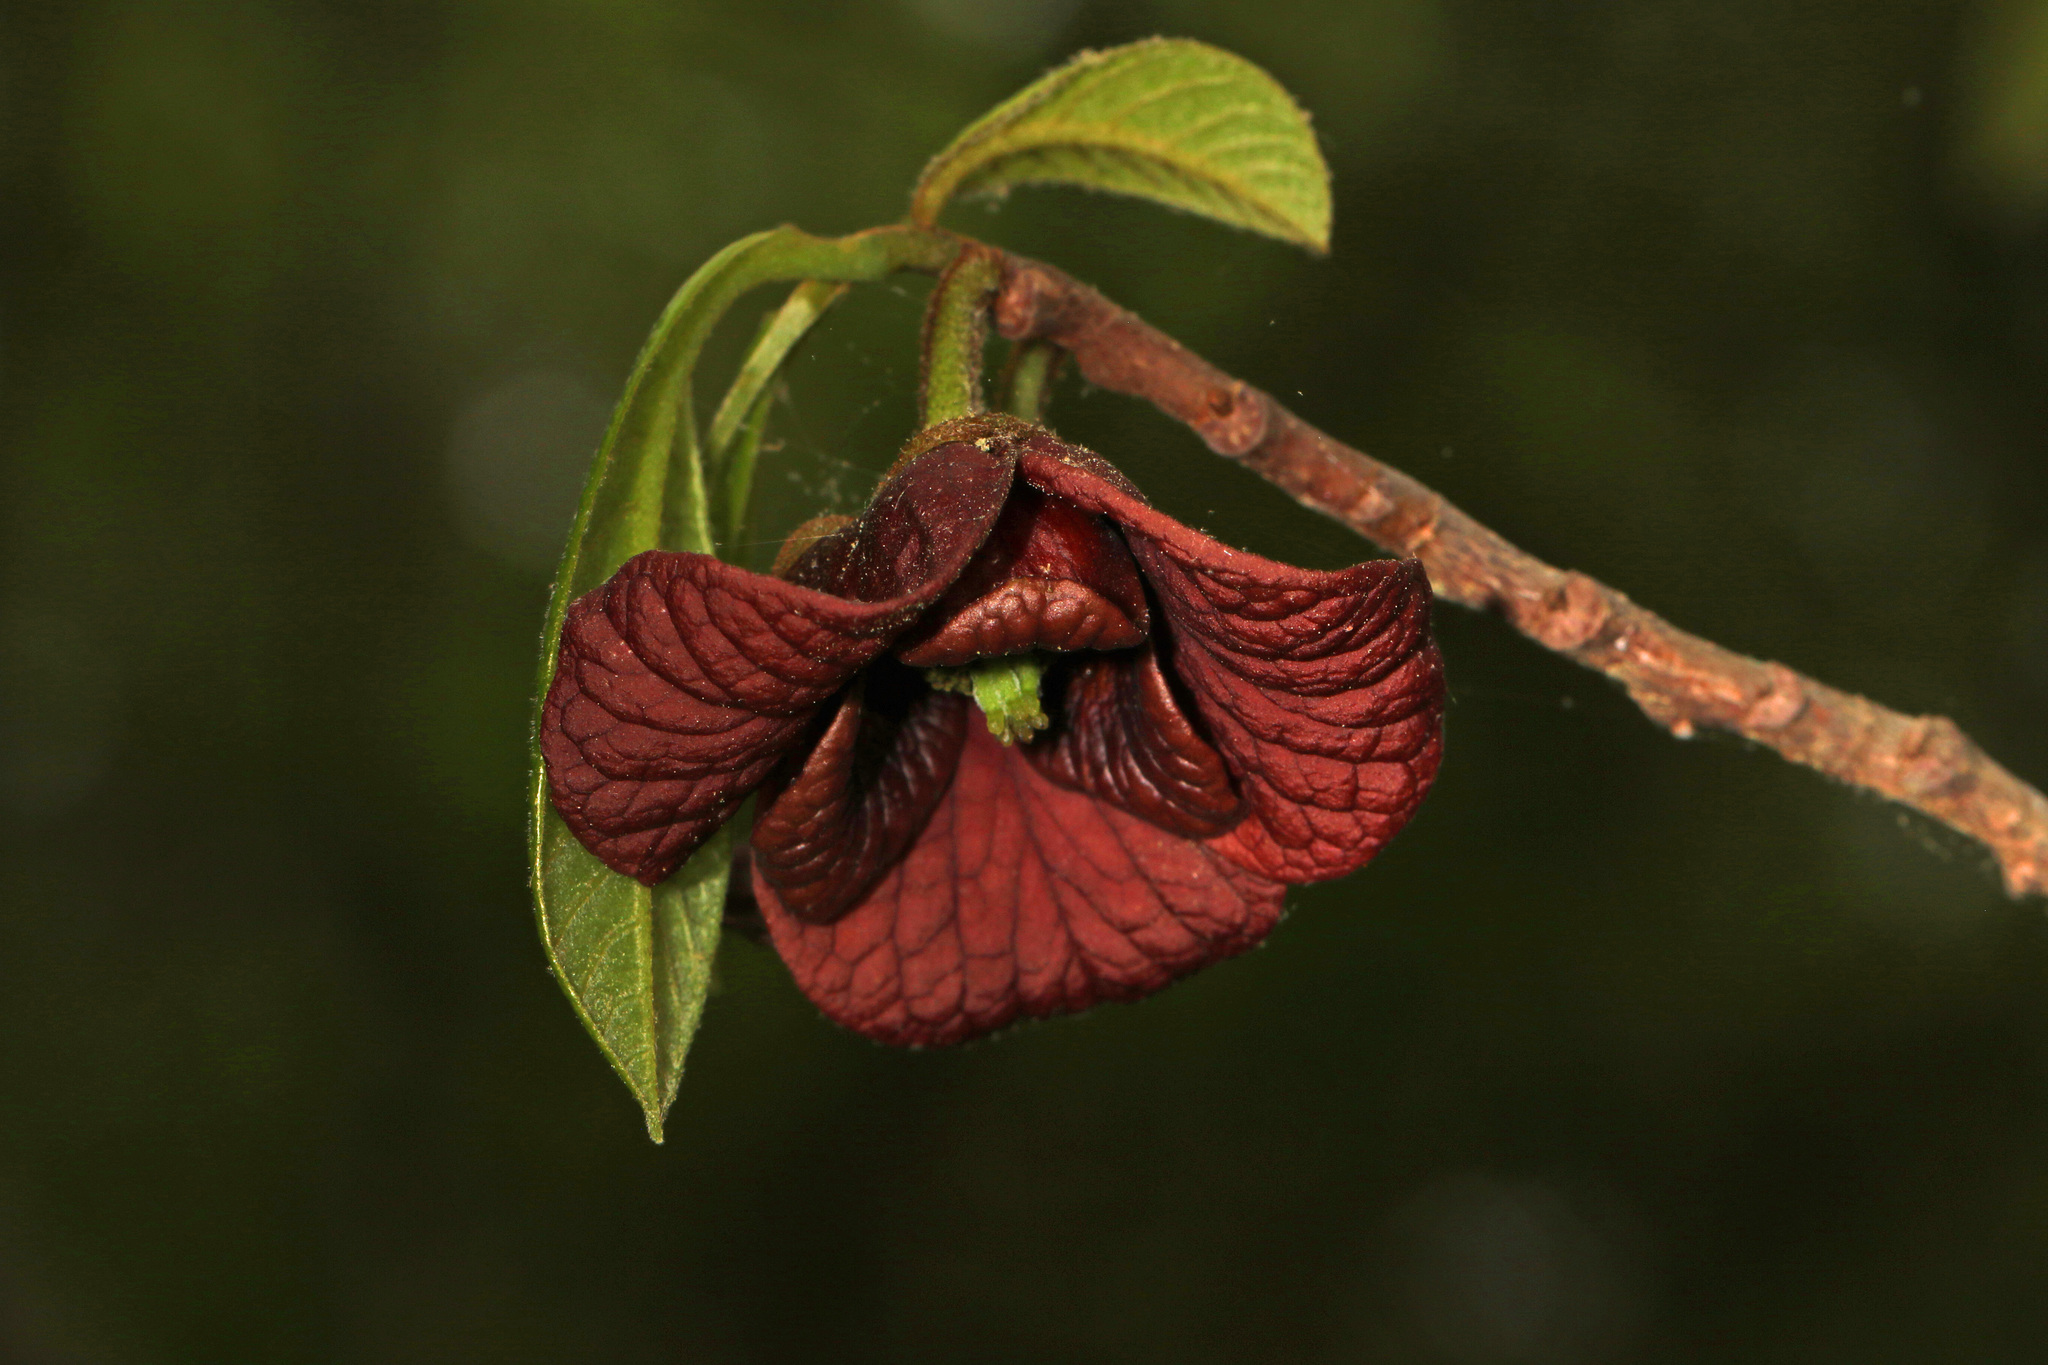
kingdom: Plantae
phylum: Tracheophyta
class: Magnoliopsida
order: Magnoliales
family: Annonaceae
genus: Asimina
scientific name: Asimina triloba
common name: Dog-banana
